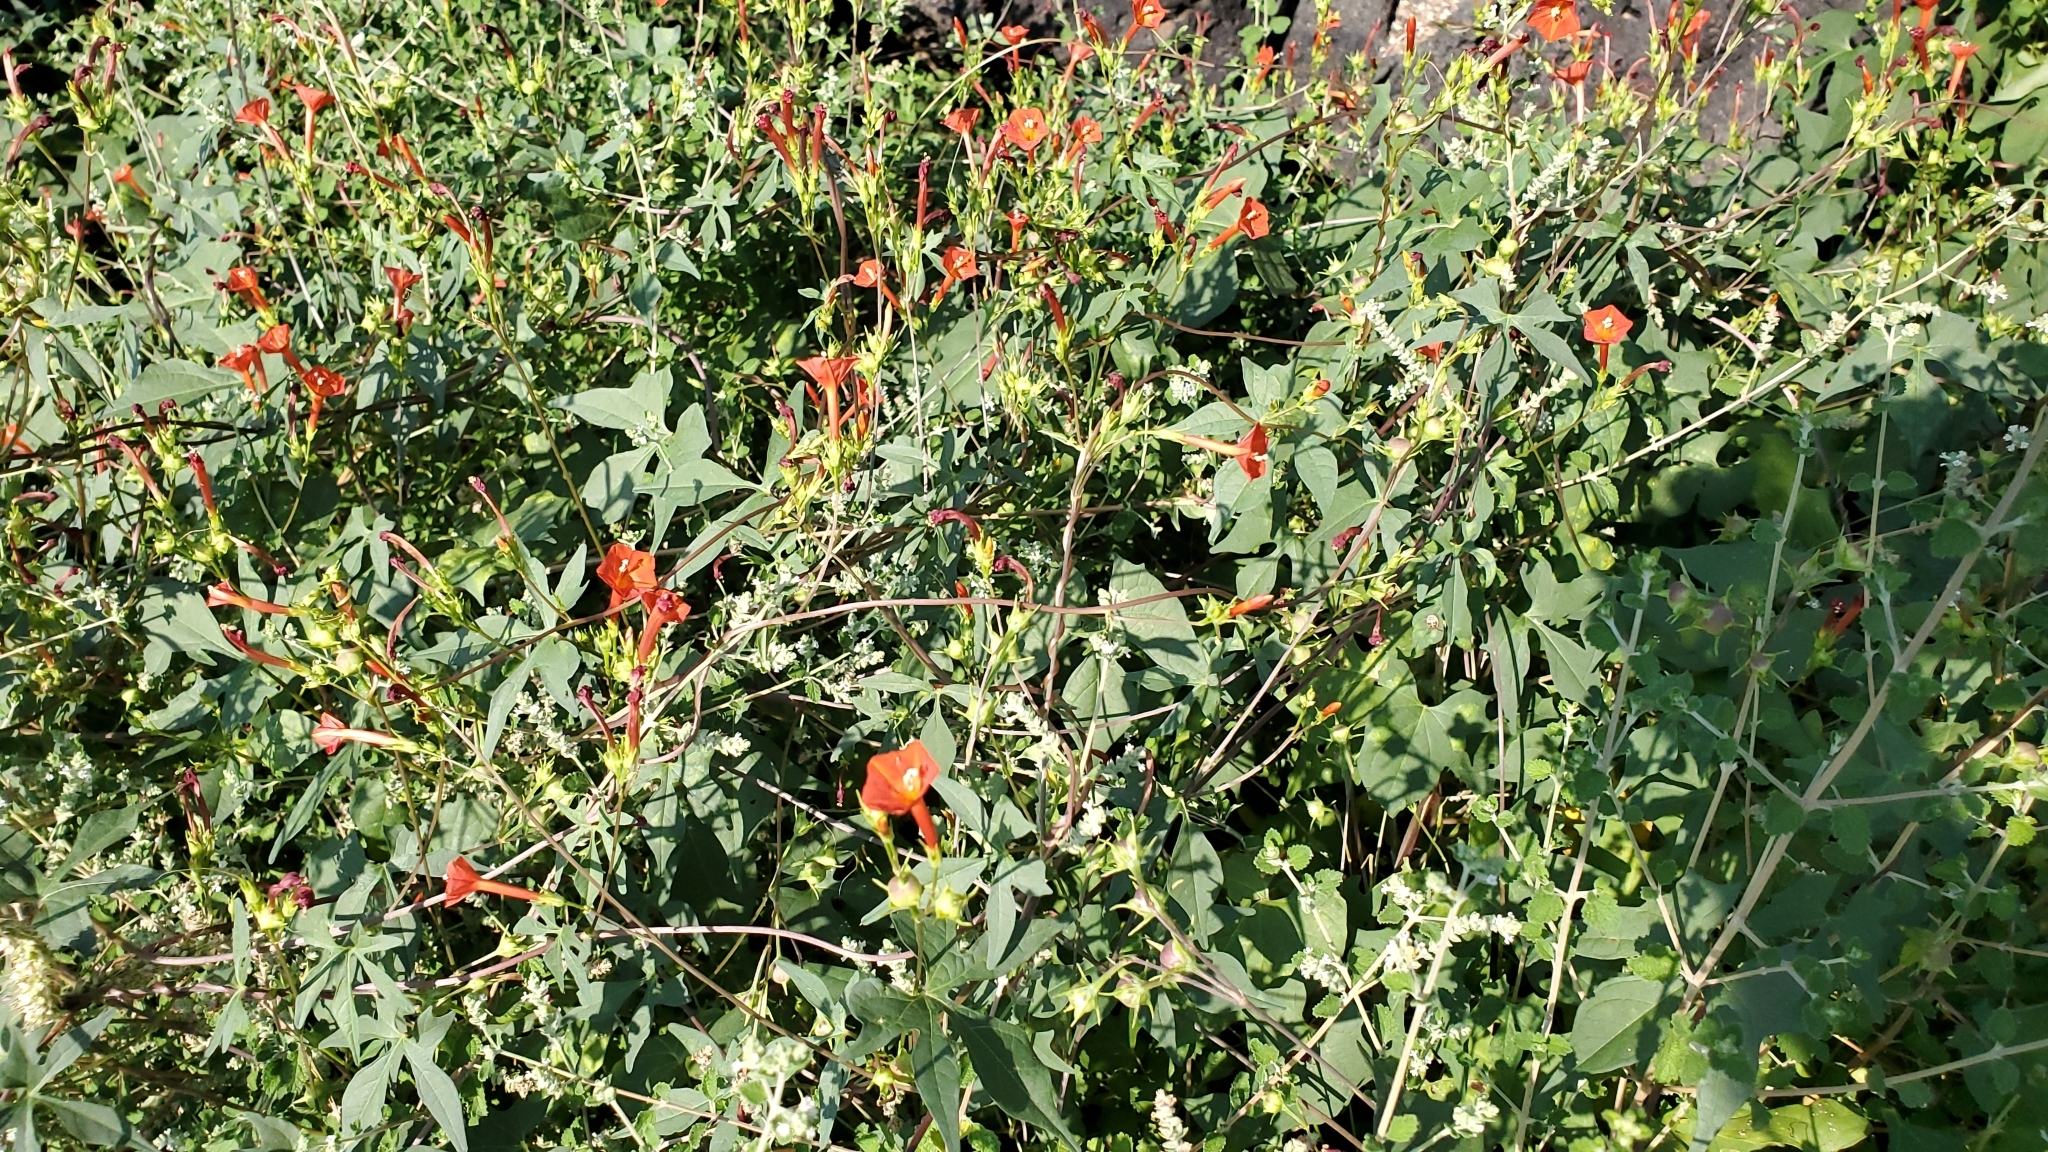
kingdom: Plantae
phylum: Tracheophyta
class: Magnoliopsida
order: Solanales
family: Convolvulaceae
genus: Ipomoea
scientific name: Ipomoea cristulata
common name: Trans-pecos morning-glory
